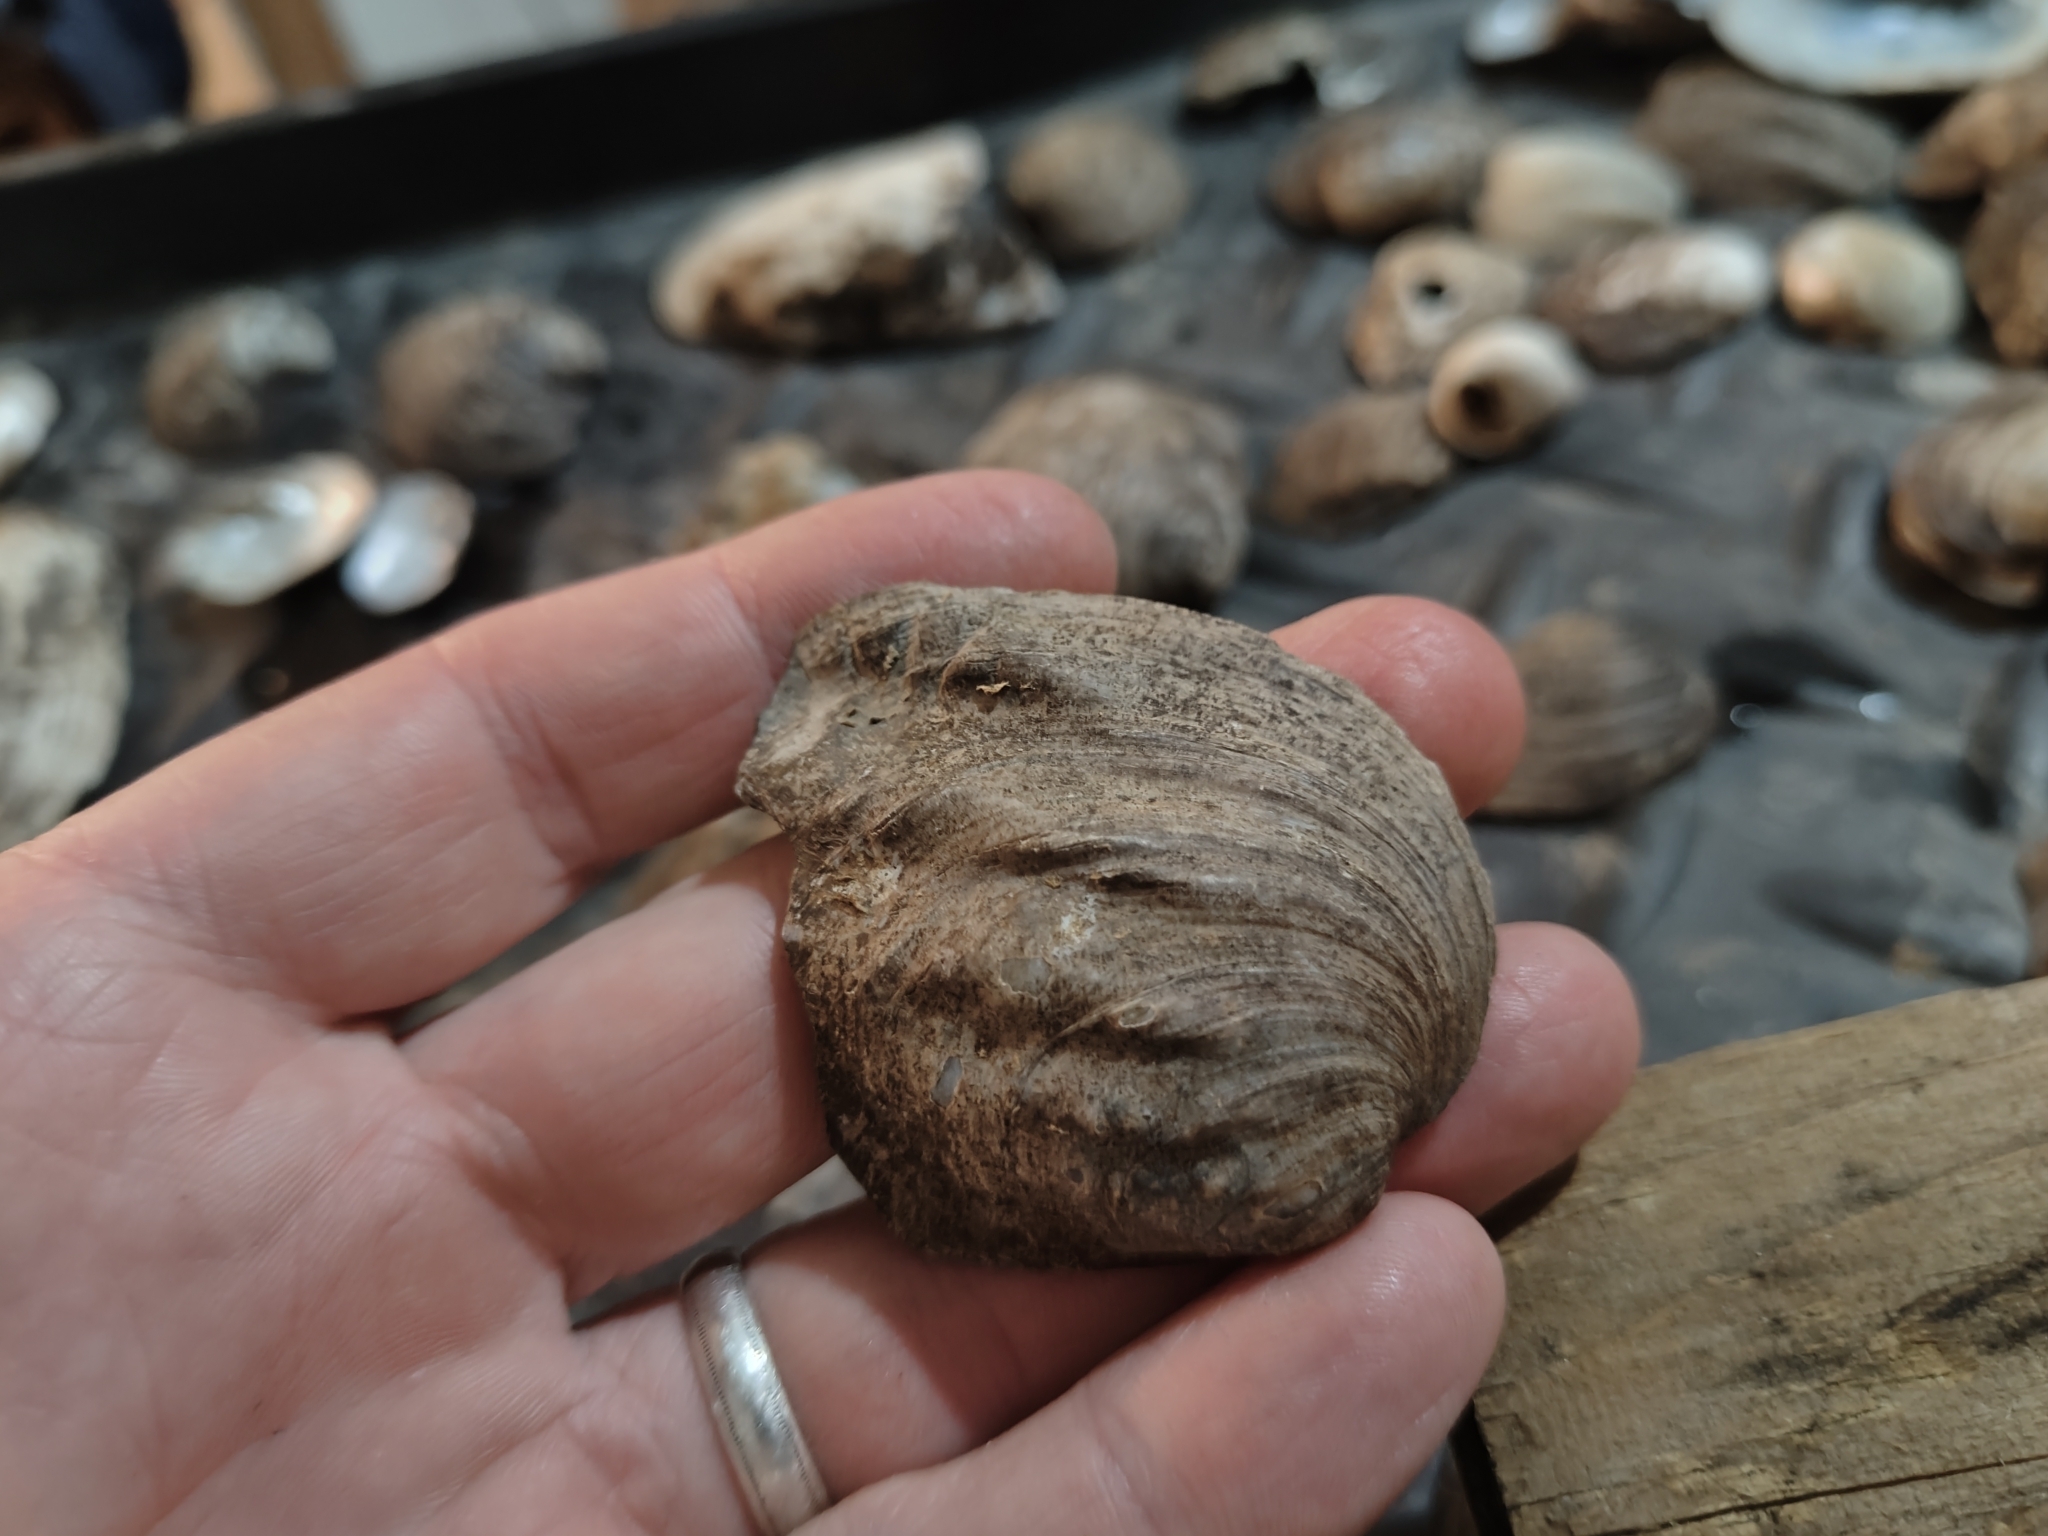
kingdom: Animalia
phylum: Mollusca
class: Bivalvia
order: Unionida
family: Unionidae
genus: Amblema
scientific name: Amblema plicata
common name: Threeridge
